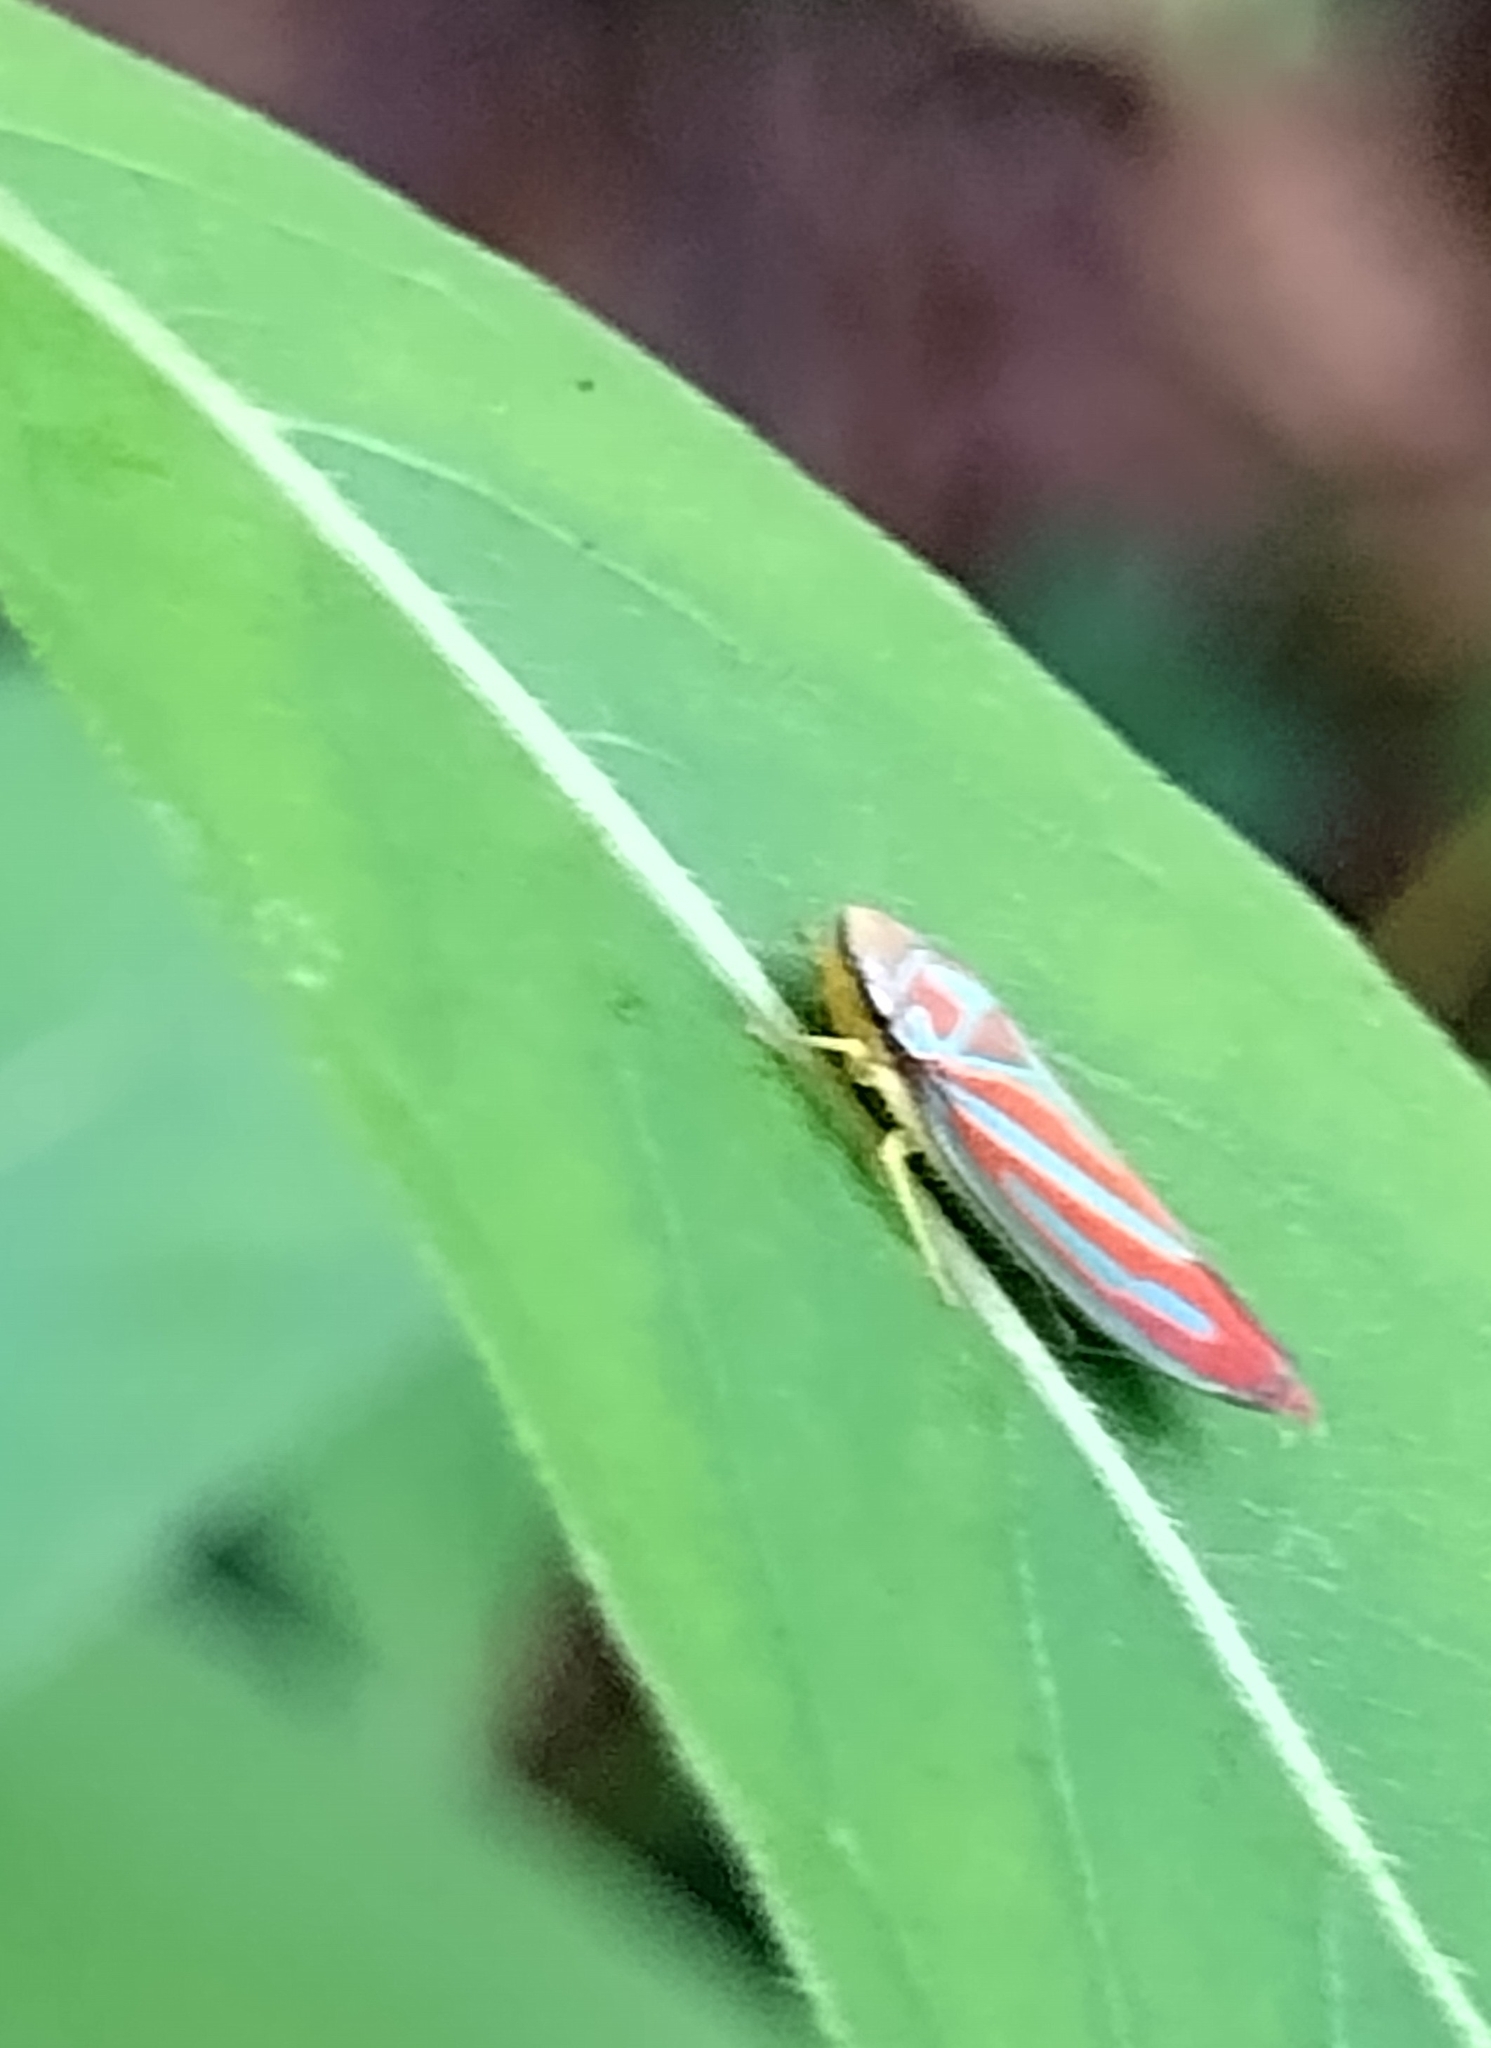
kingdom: Animalia
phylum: Arthropoda
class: Insecta
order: Hemiptera
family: Cicadellidae
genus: Graphocephala
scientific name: Graphocephala coccinea
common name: Candy-striped leafhopper
